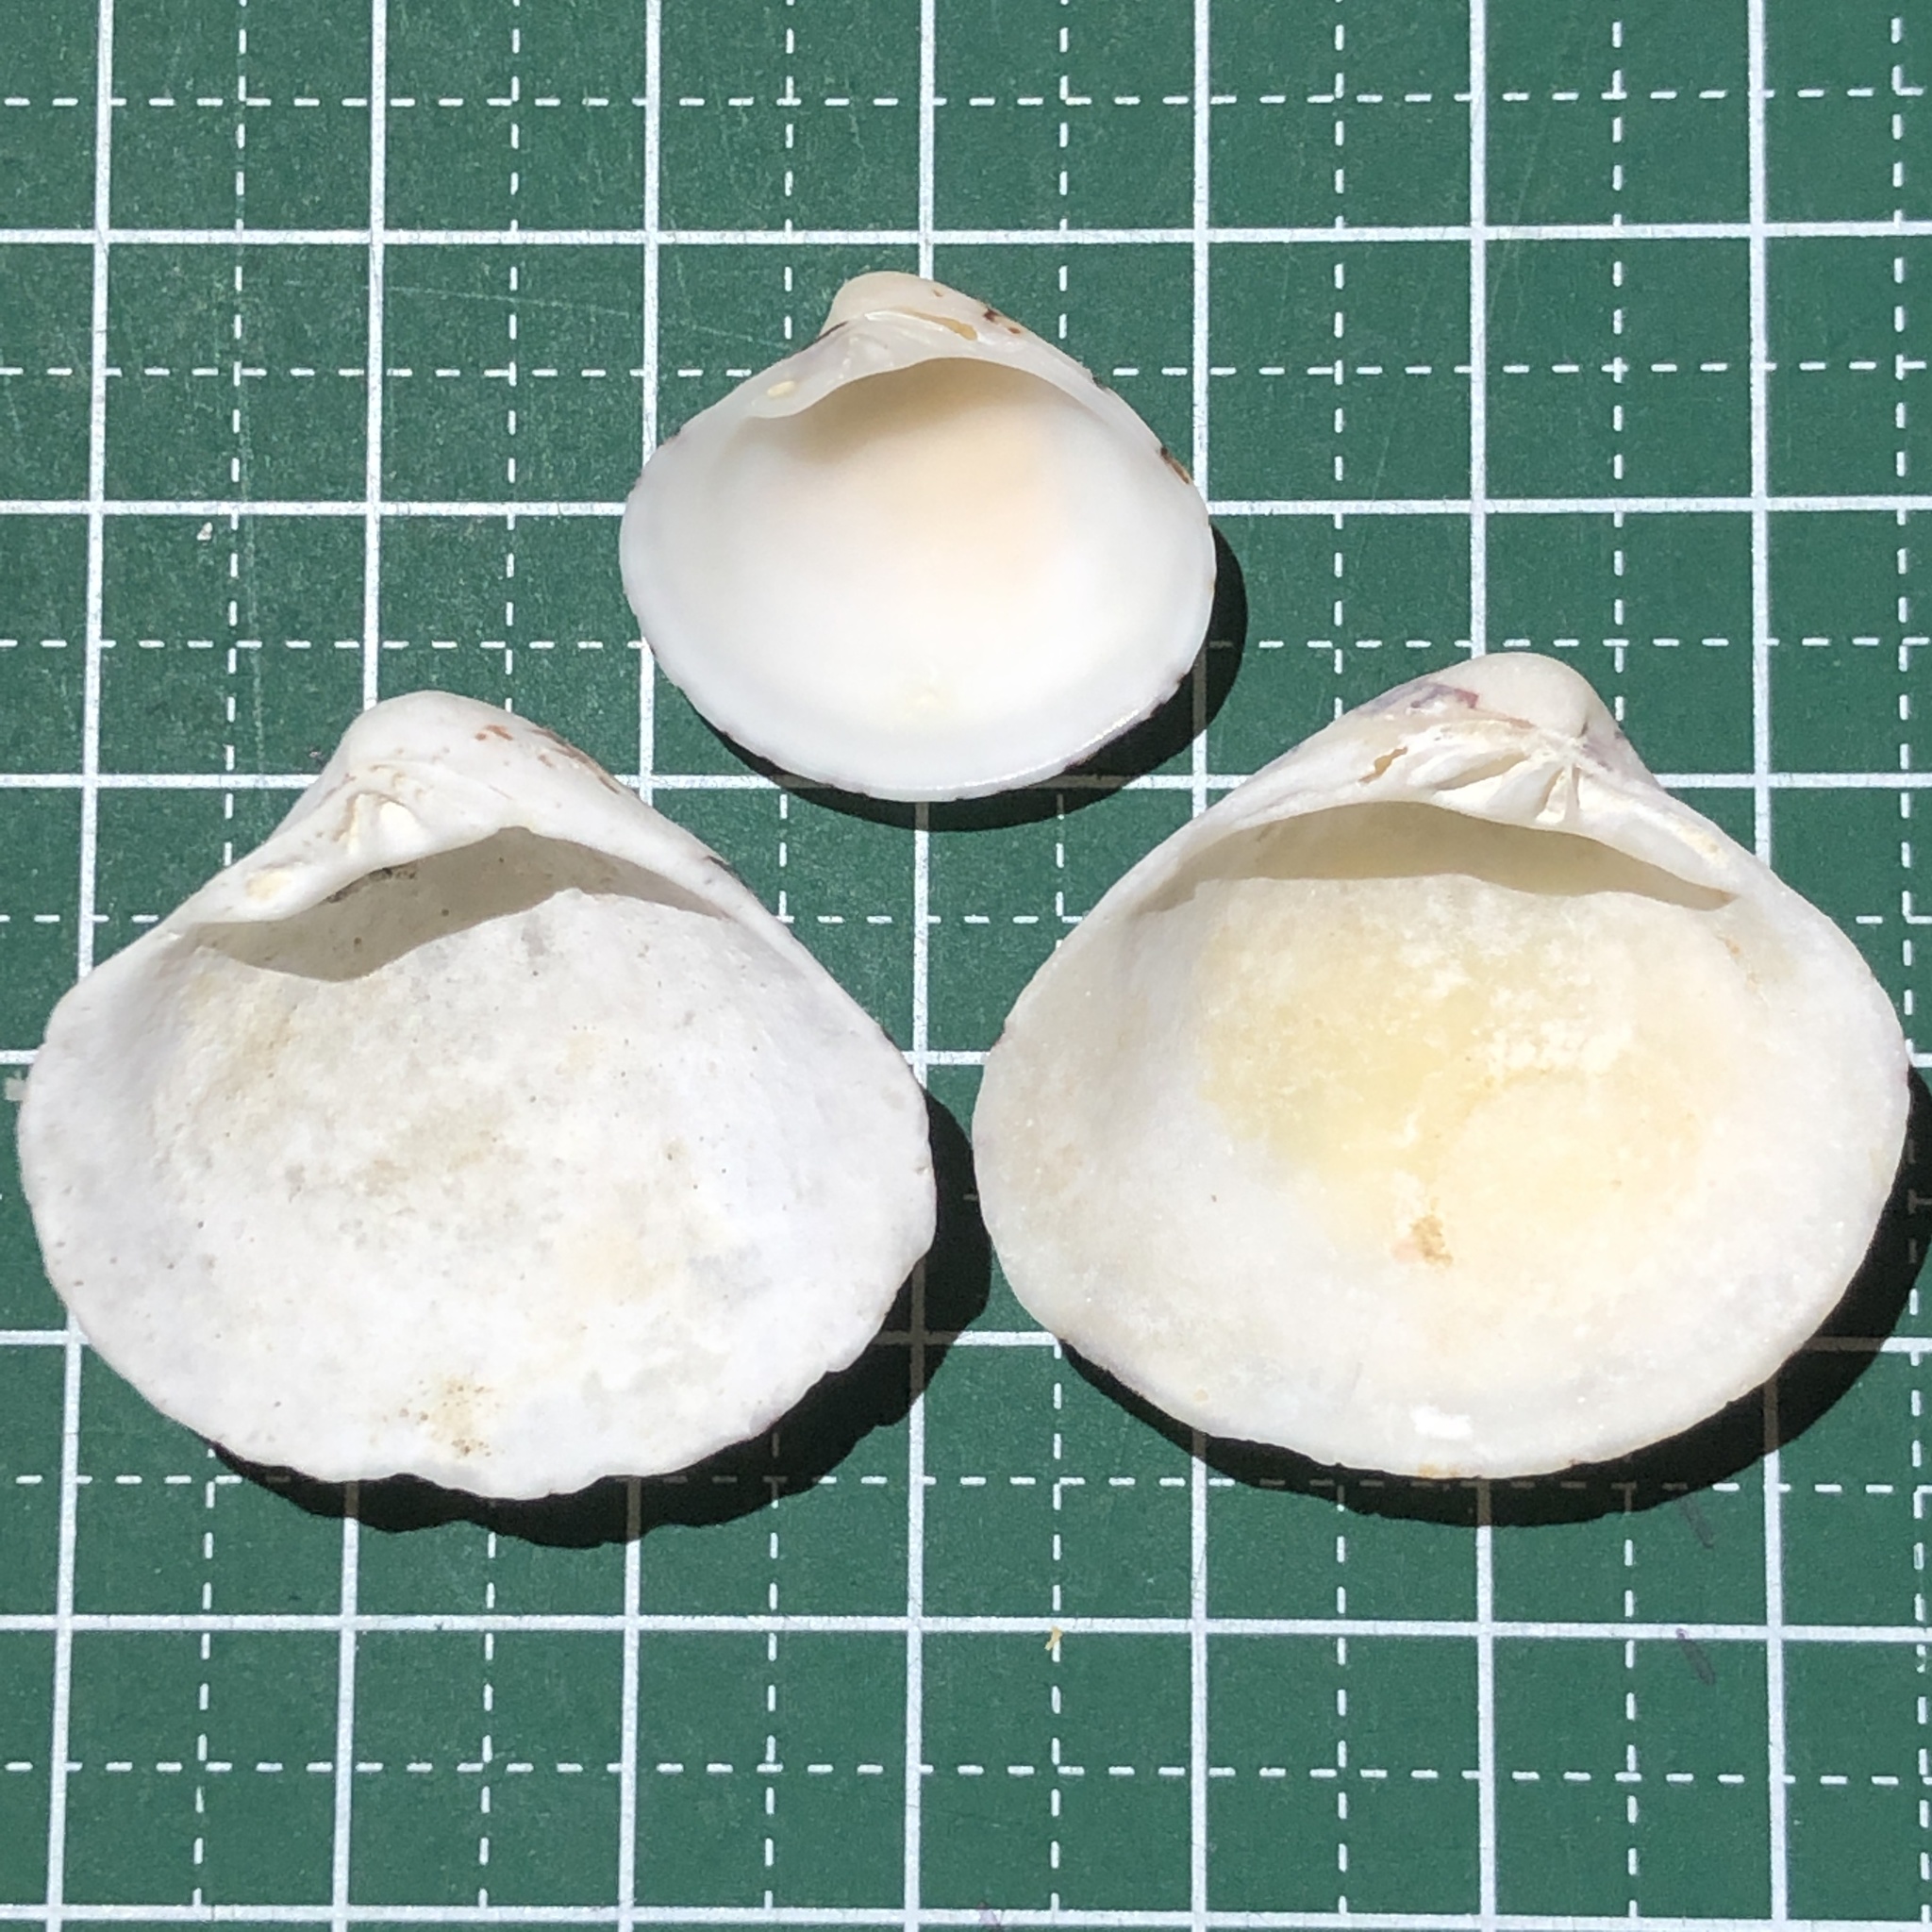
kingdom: Animalia
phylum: Mollusca
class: Bivalvia
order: Venerida
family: Veneridae
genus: Lioconcha
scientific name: Lioconcha fastigiata
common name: Clam
